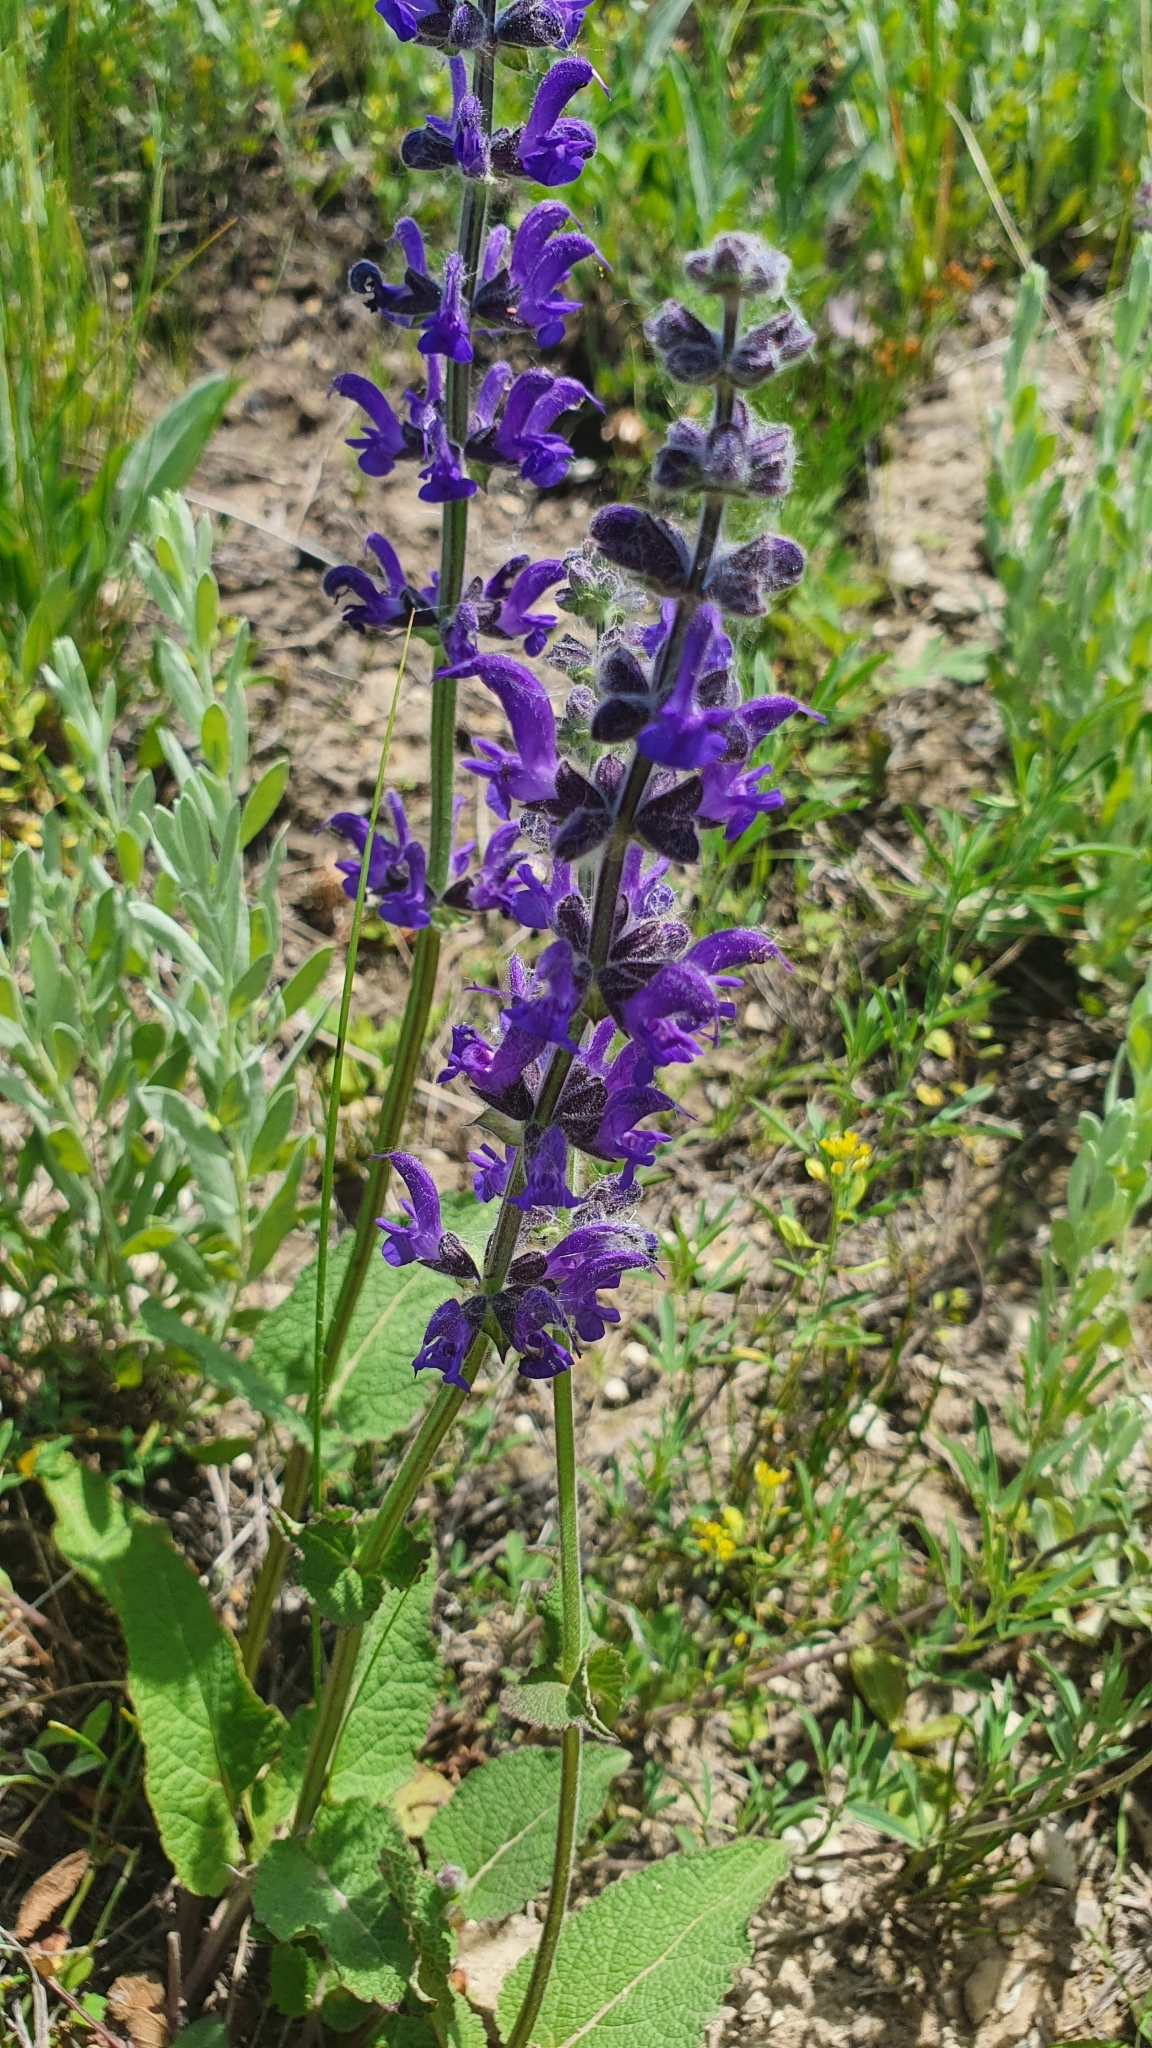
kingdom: Plantae
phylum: Tracheophyta
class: Magnoliopsida
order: Lamiales
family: Lamiaceae
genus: Salvia
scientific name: Salvia dumetorum
